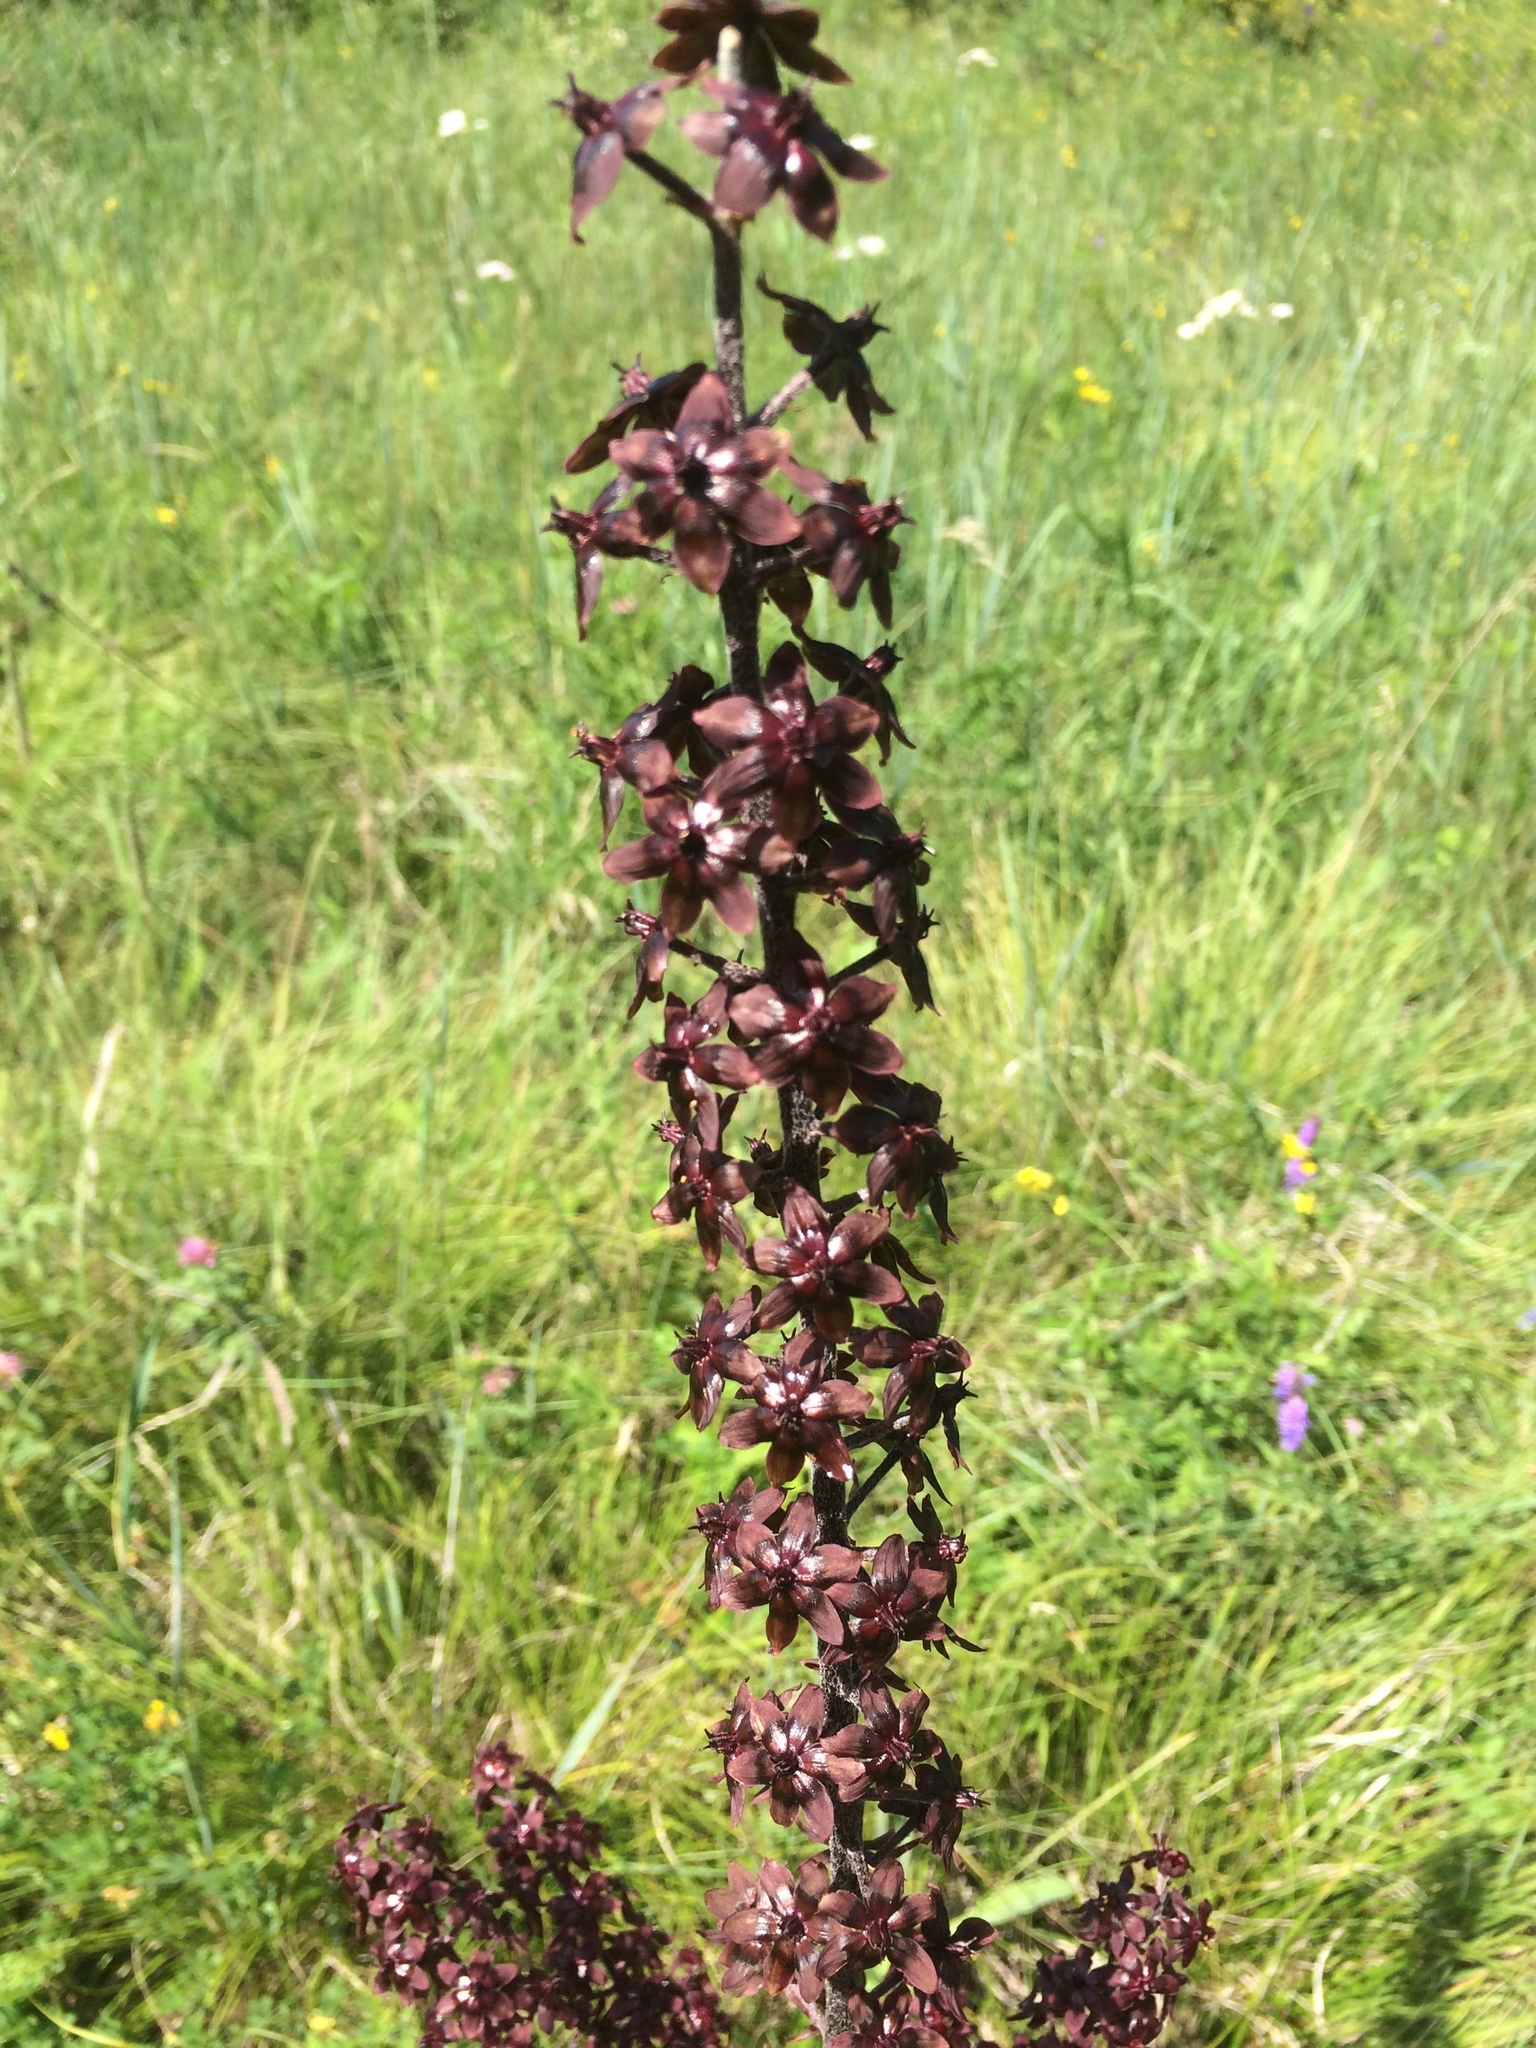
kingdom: Plantae
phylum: Tracheophyta
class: Liliopsida
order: Liliales
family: Melanthiaceae
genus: Veratrum
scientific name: Veratrum nigrum
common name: Black veratrum
